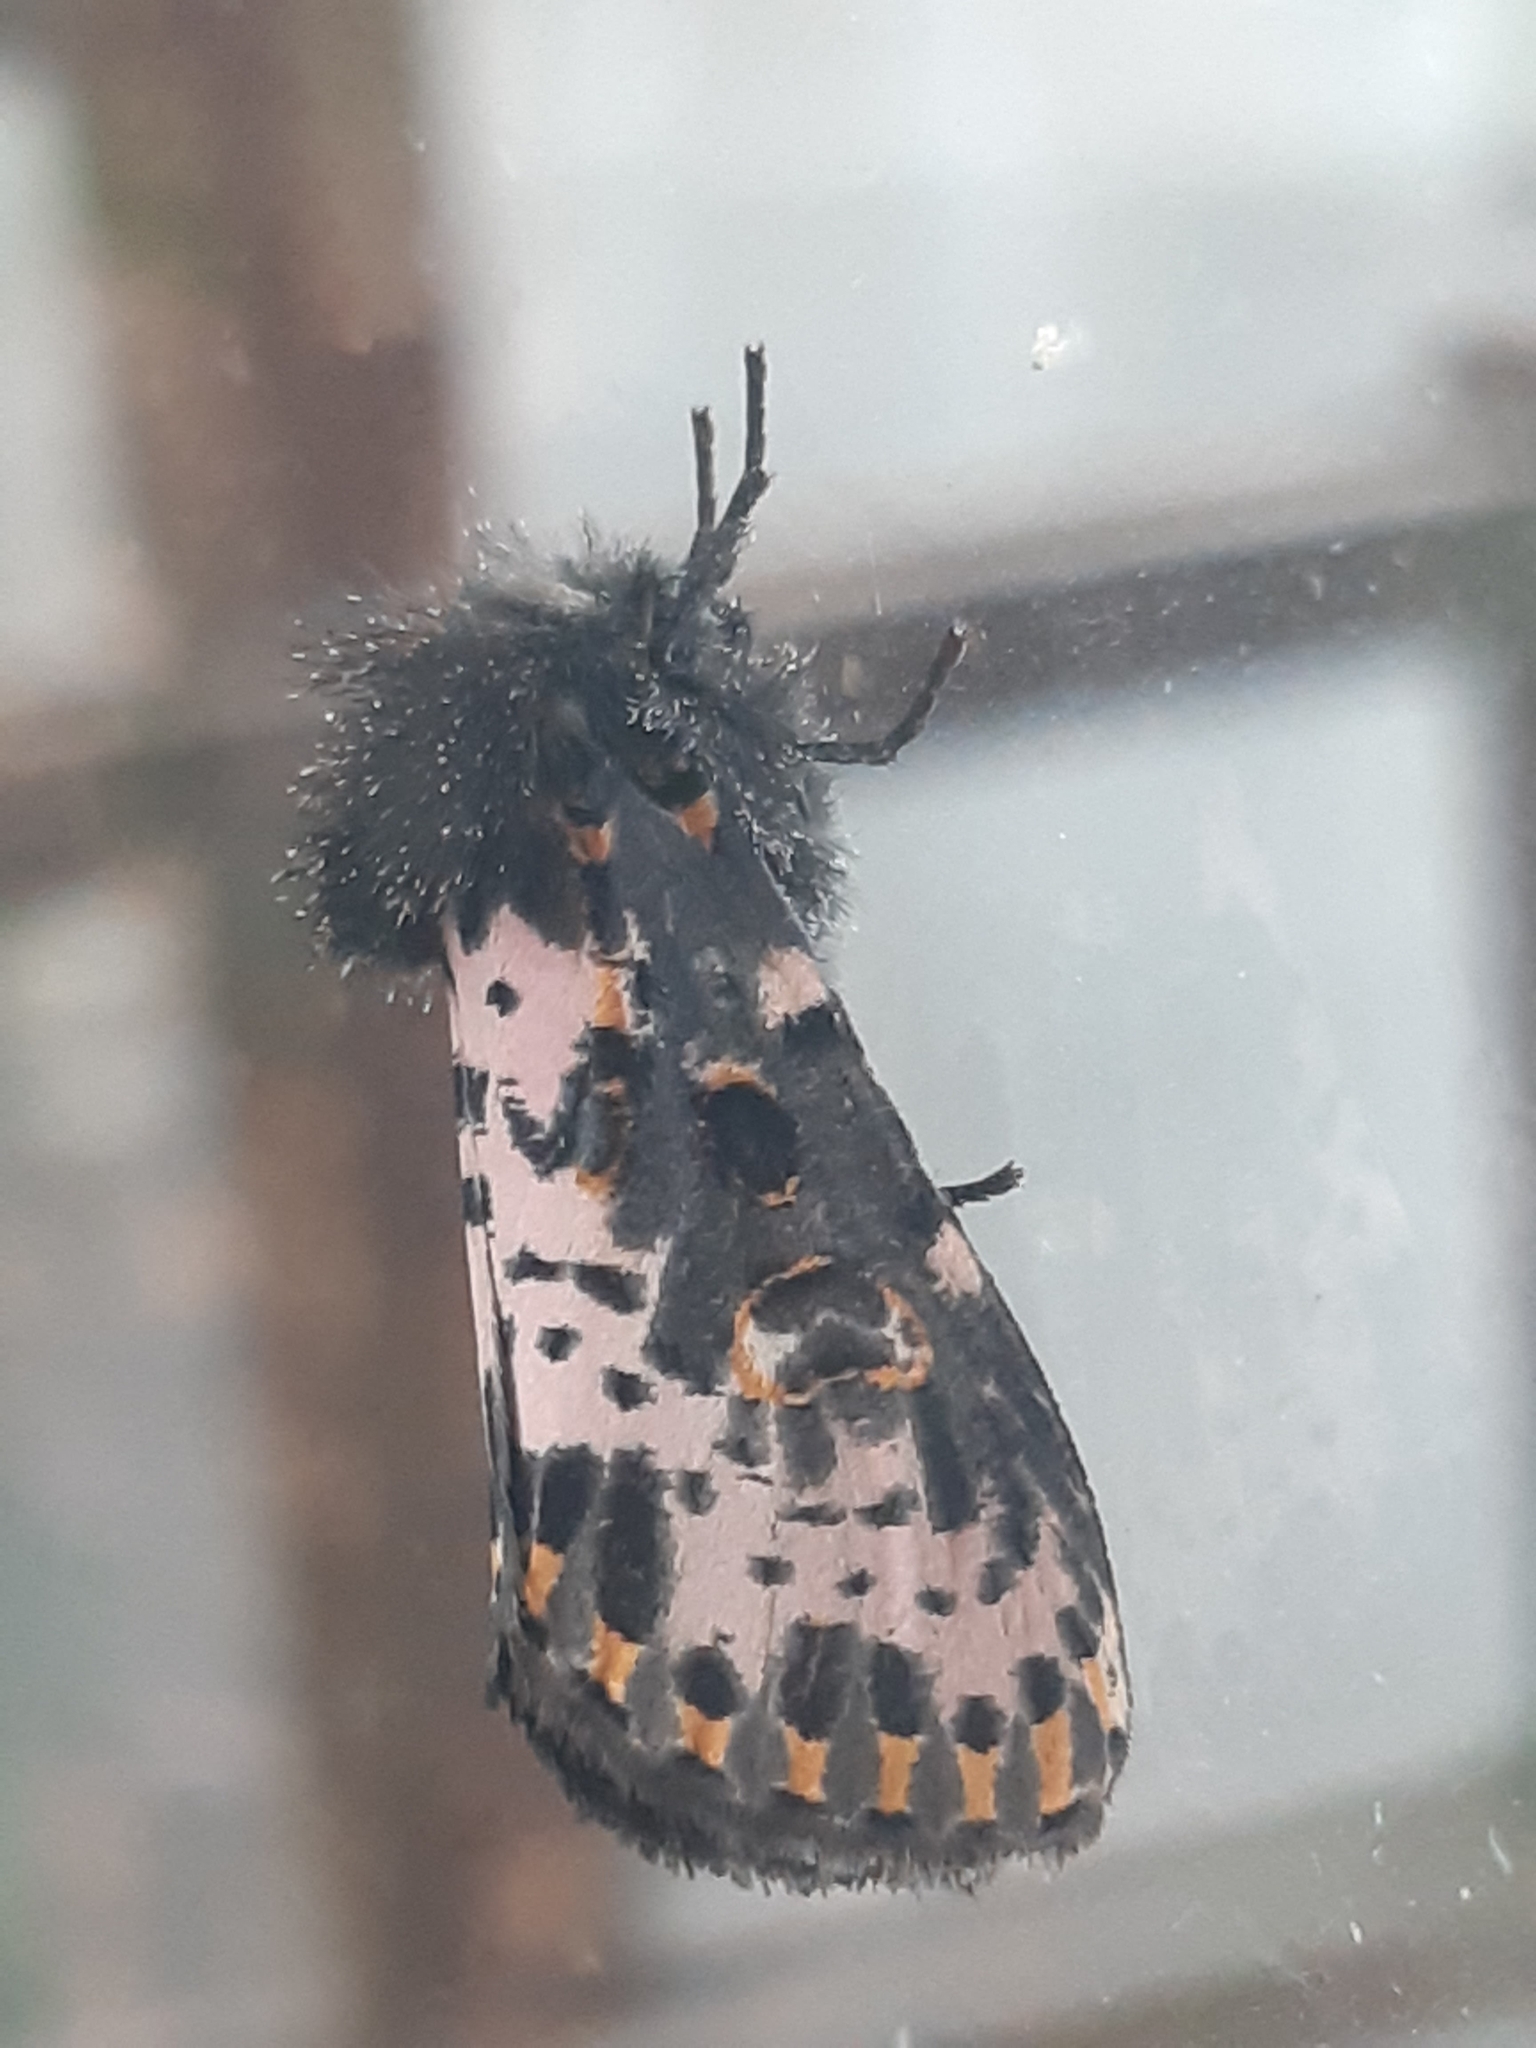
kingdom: Animalia
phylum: Arthropoda
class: Insecta
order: Lepidoptera
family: Noctuidae
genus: Xanthopastis
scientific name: Xanthopastis timais
